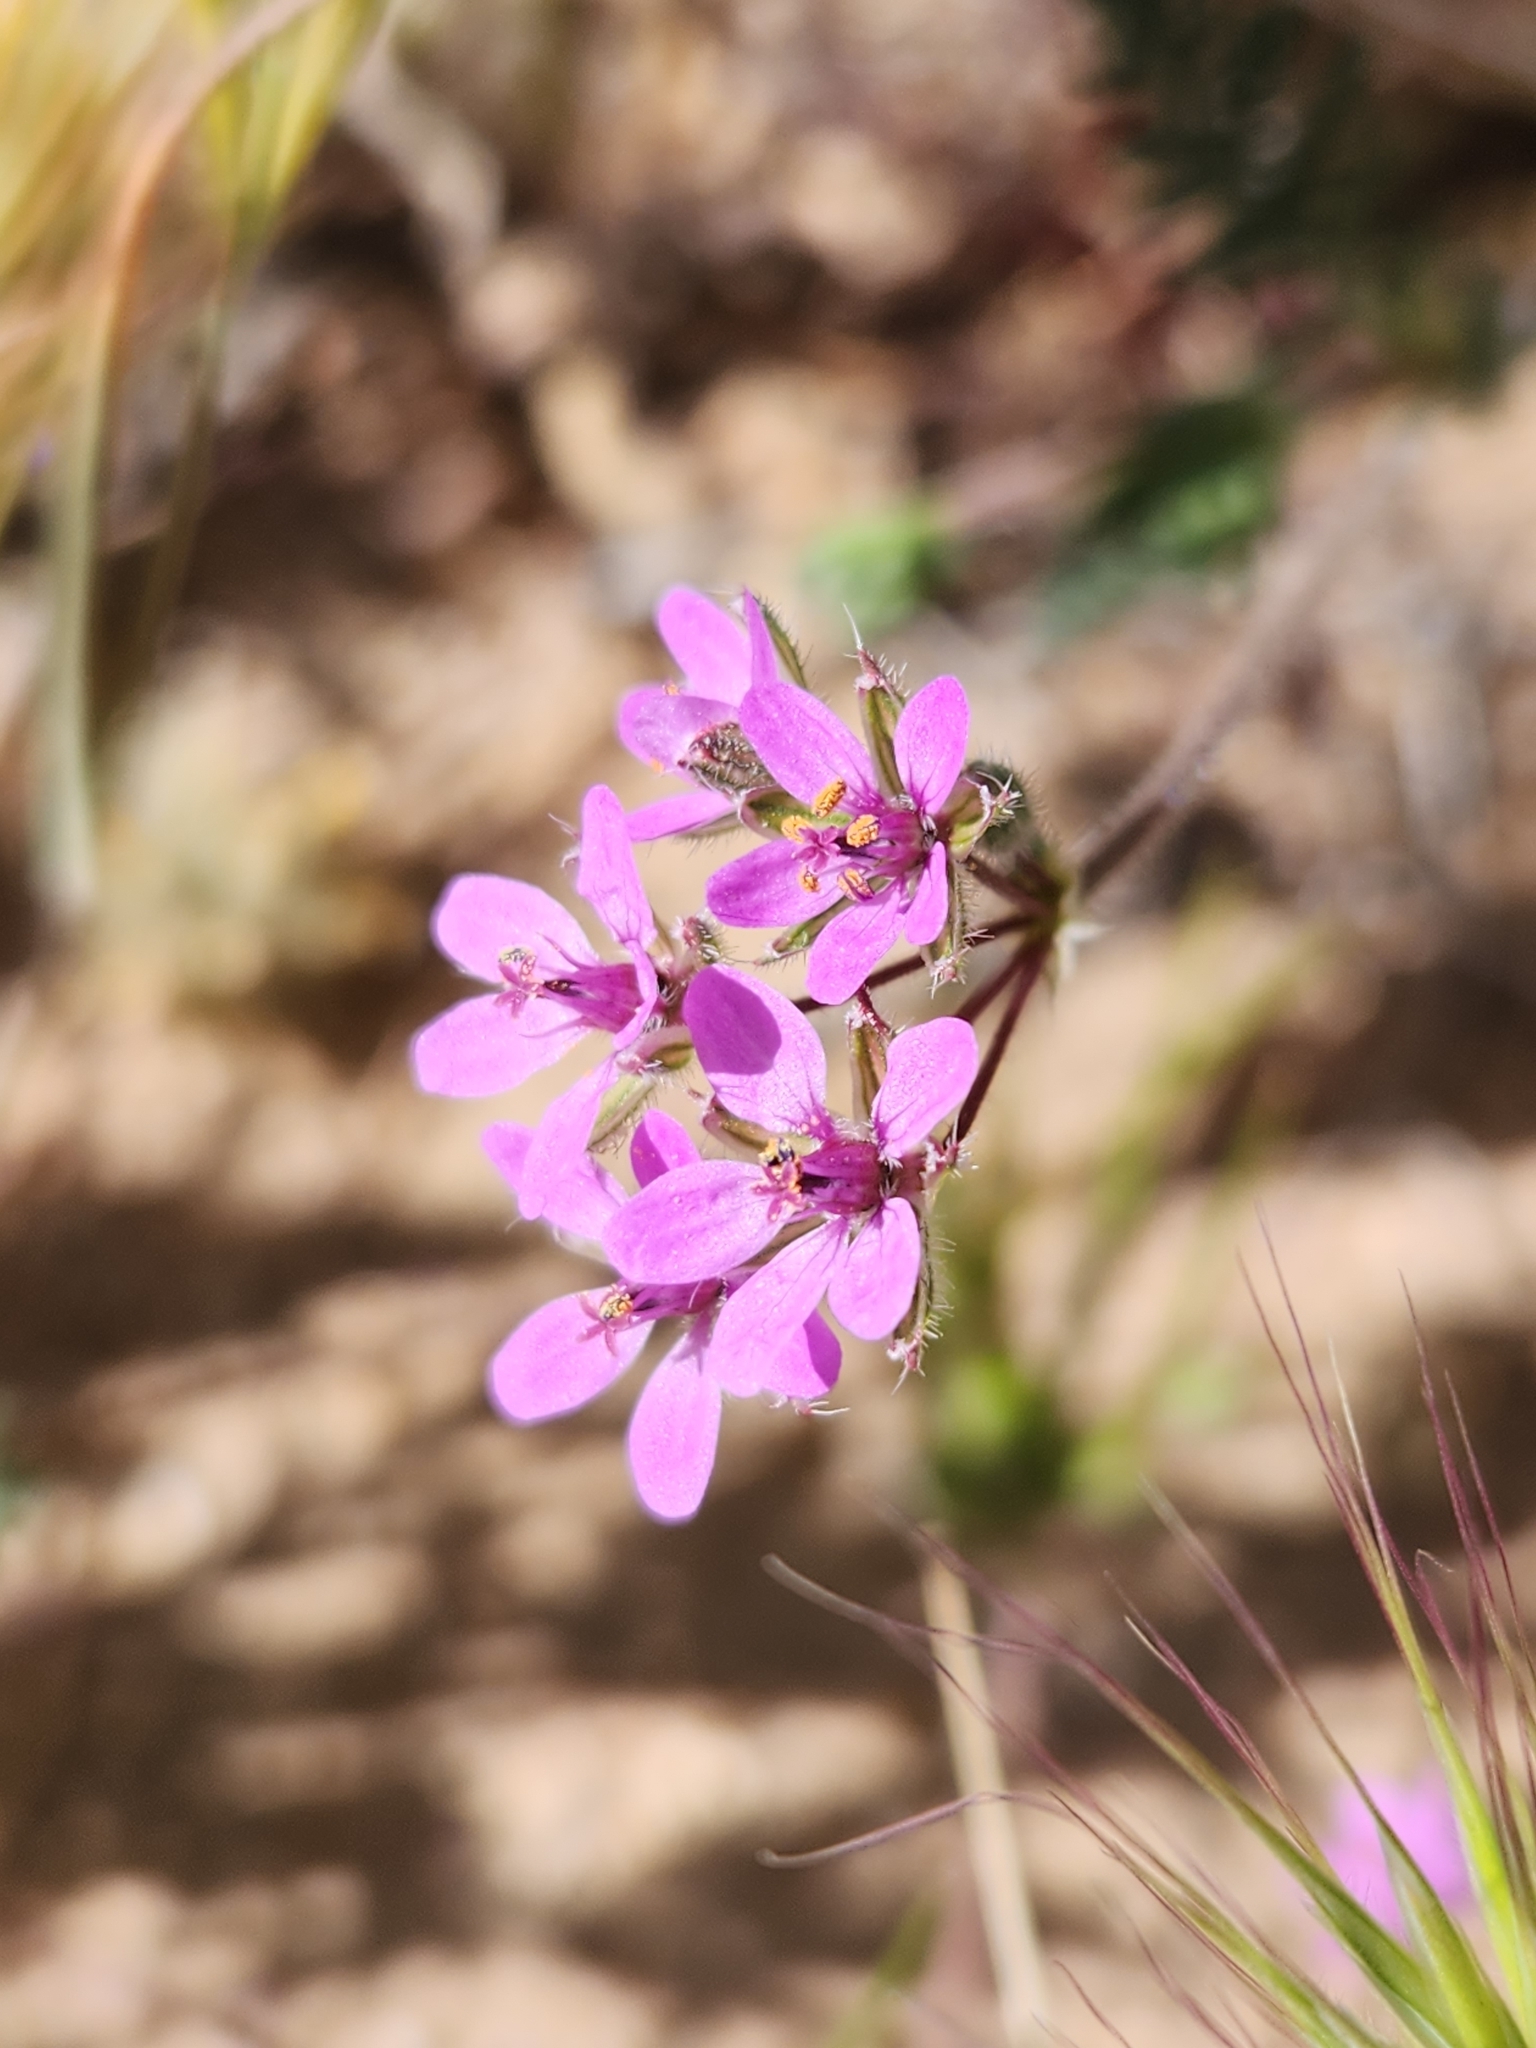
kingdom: Plantae
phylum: Tracheophyta
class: Magnoliopsida
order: Geraniales
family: Geraniaceae
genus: Erodium
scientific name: Erodium cicutarium
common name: Common stork's-bill
